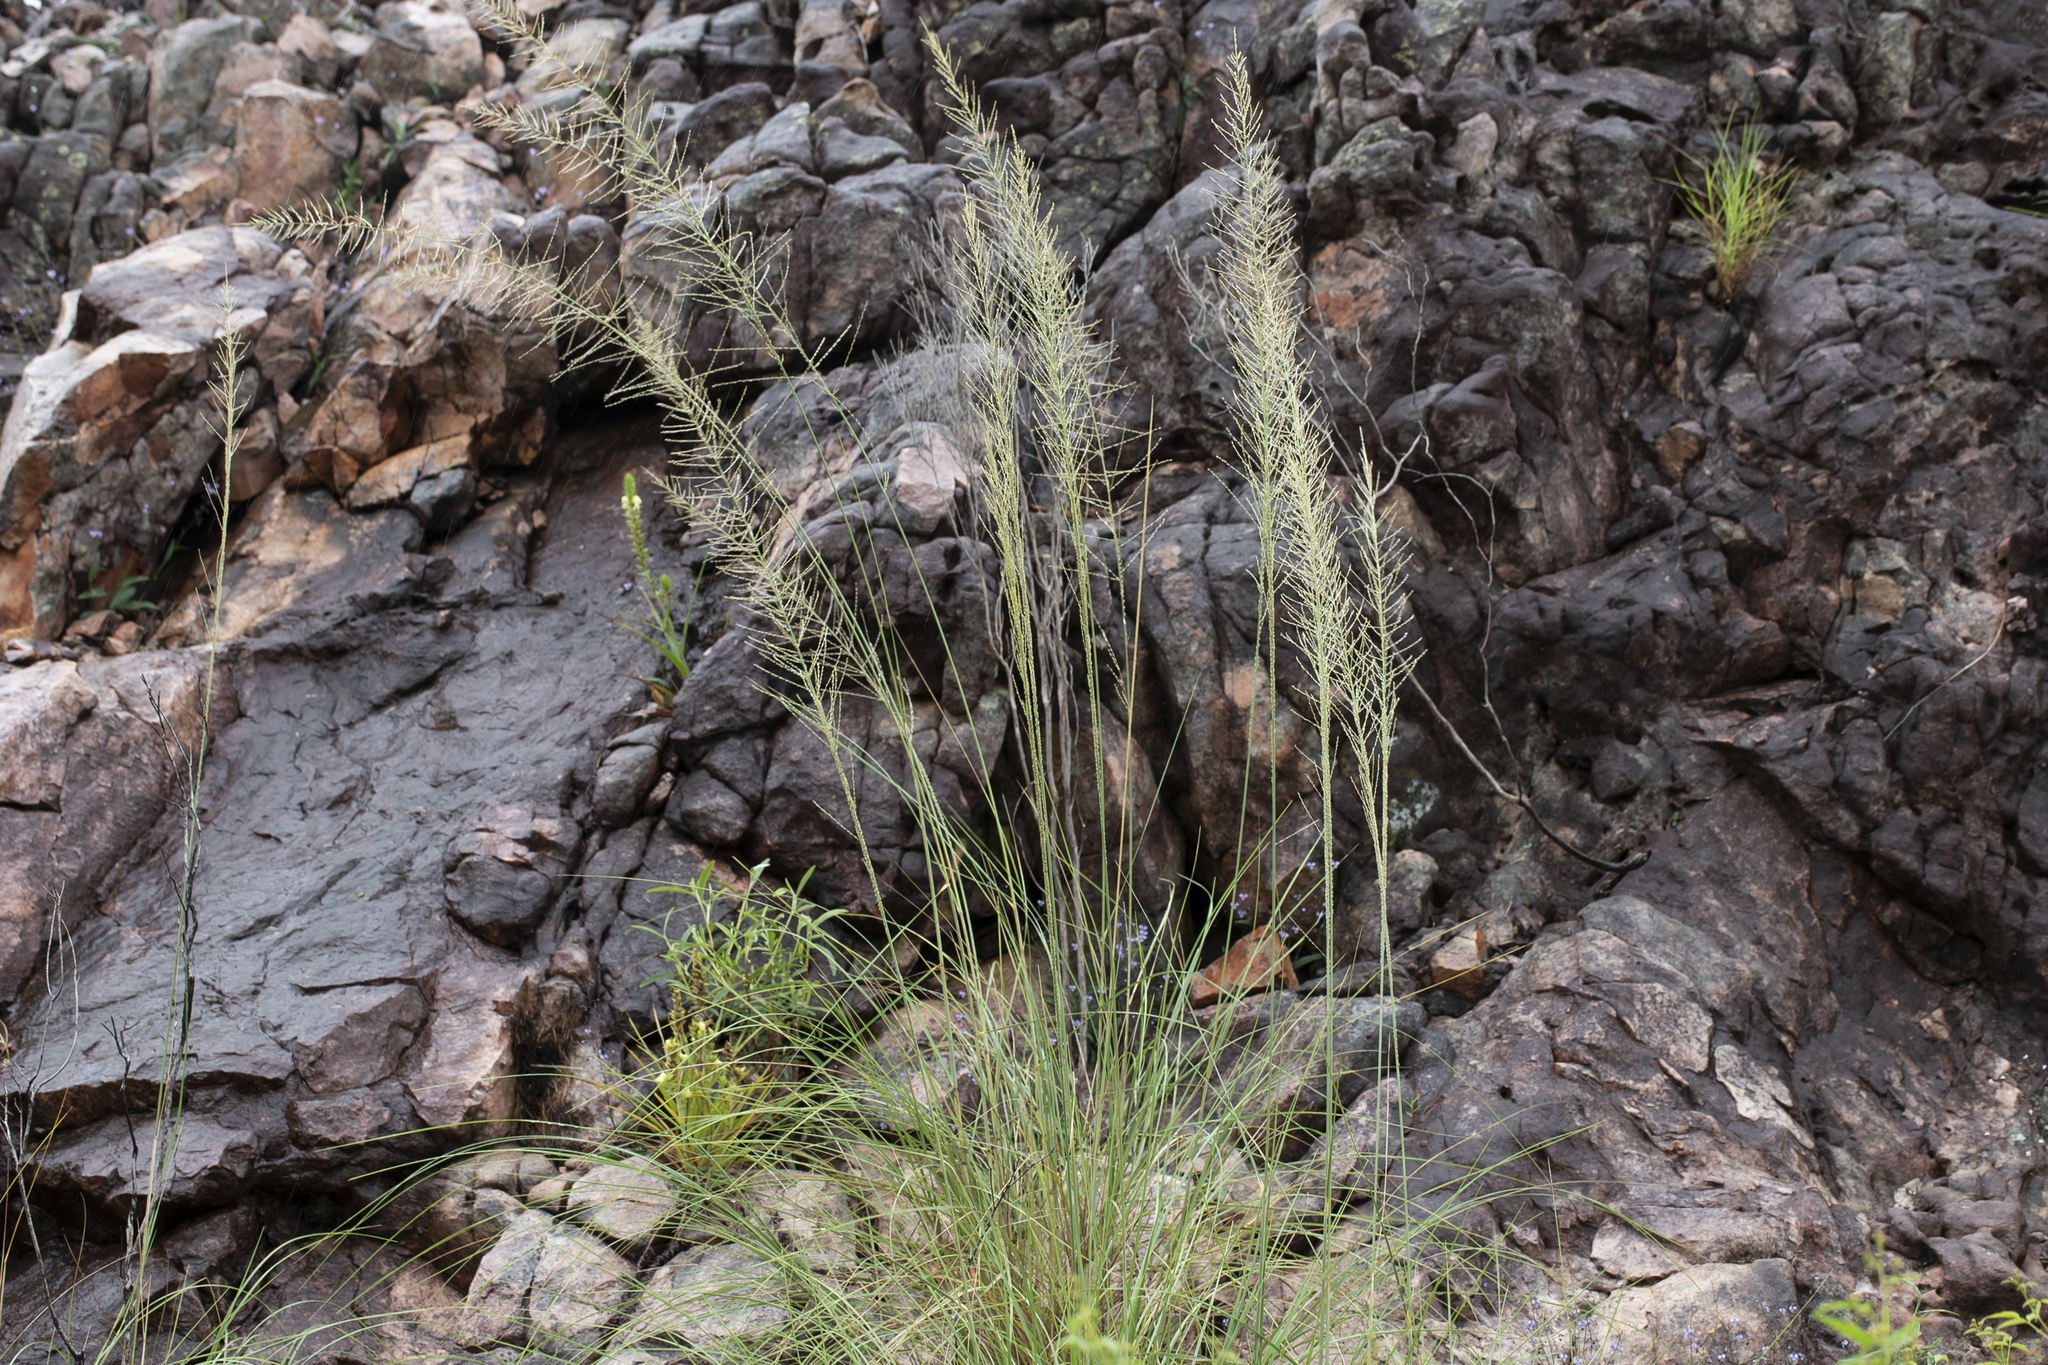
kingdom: Plantae
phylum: Tracheophyta
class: Liliopsida
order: Poales
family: Poaceae
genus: Triodia
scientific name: Triodia microstachya
